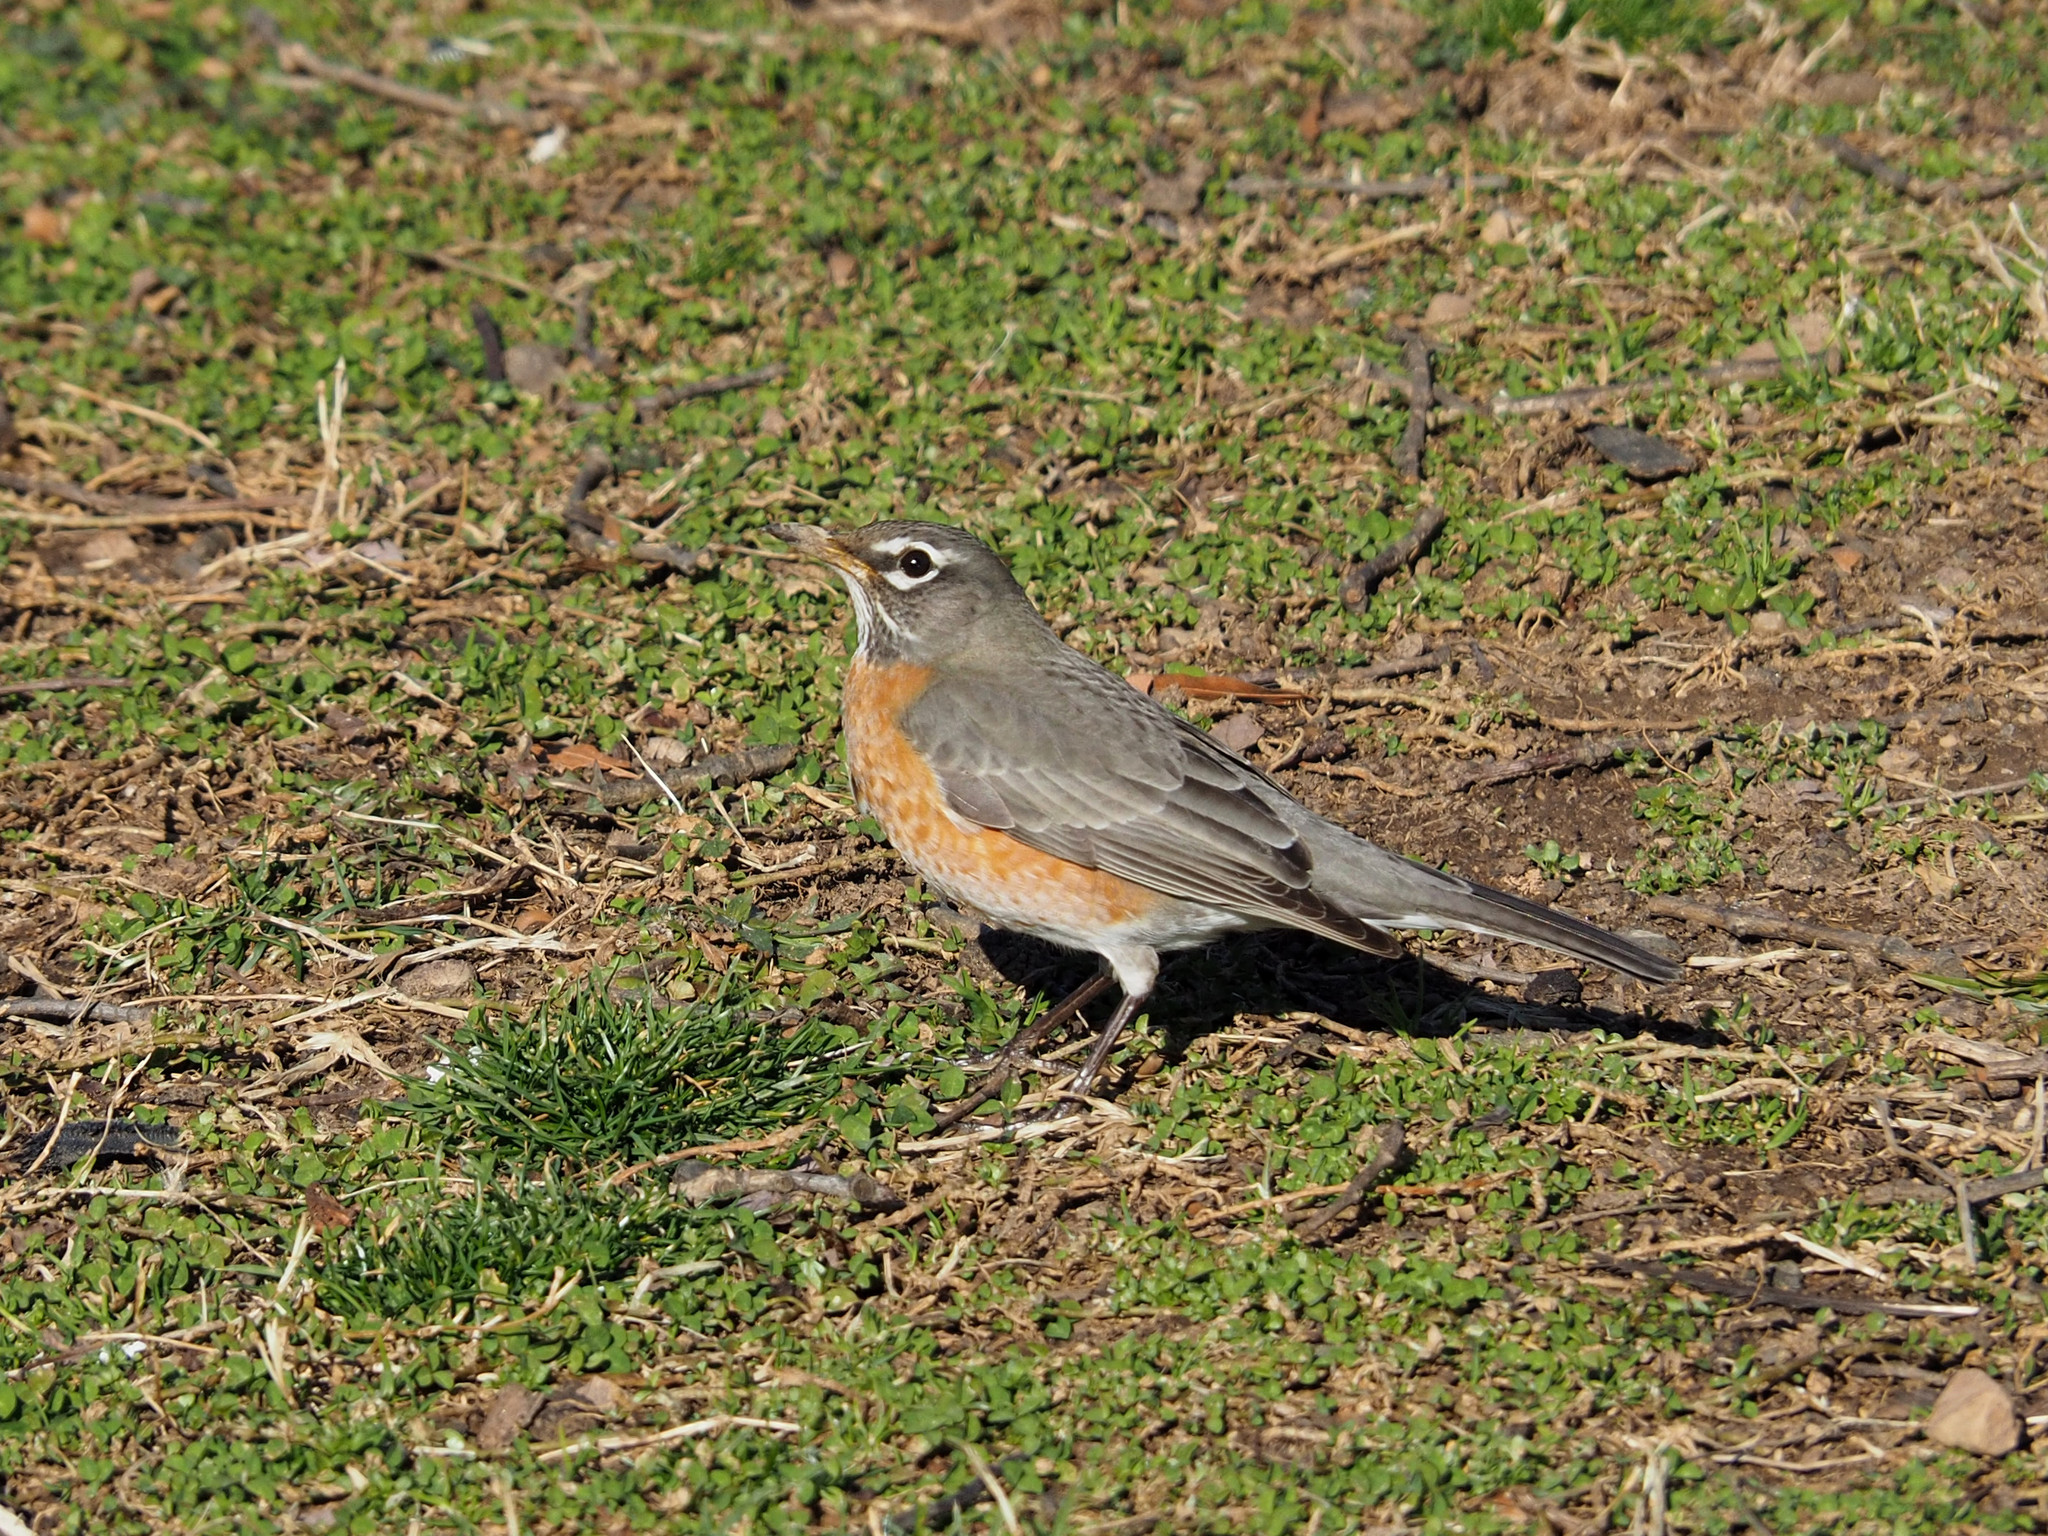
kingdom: Animalia
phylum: Chordata
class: Aves
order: Passeriformes
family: Turdidae
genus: Turdus
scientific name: Turdus migratorius
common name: American robin
